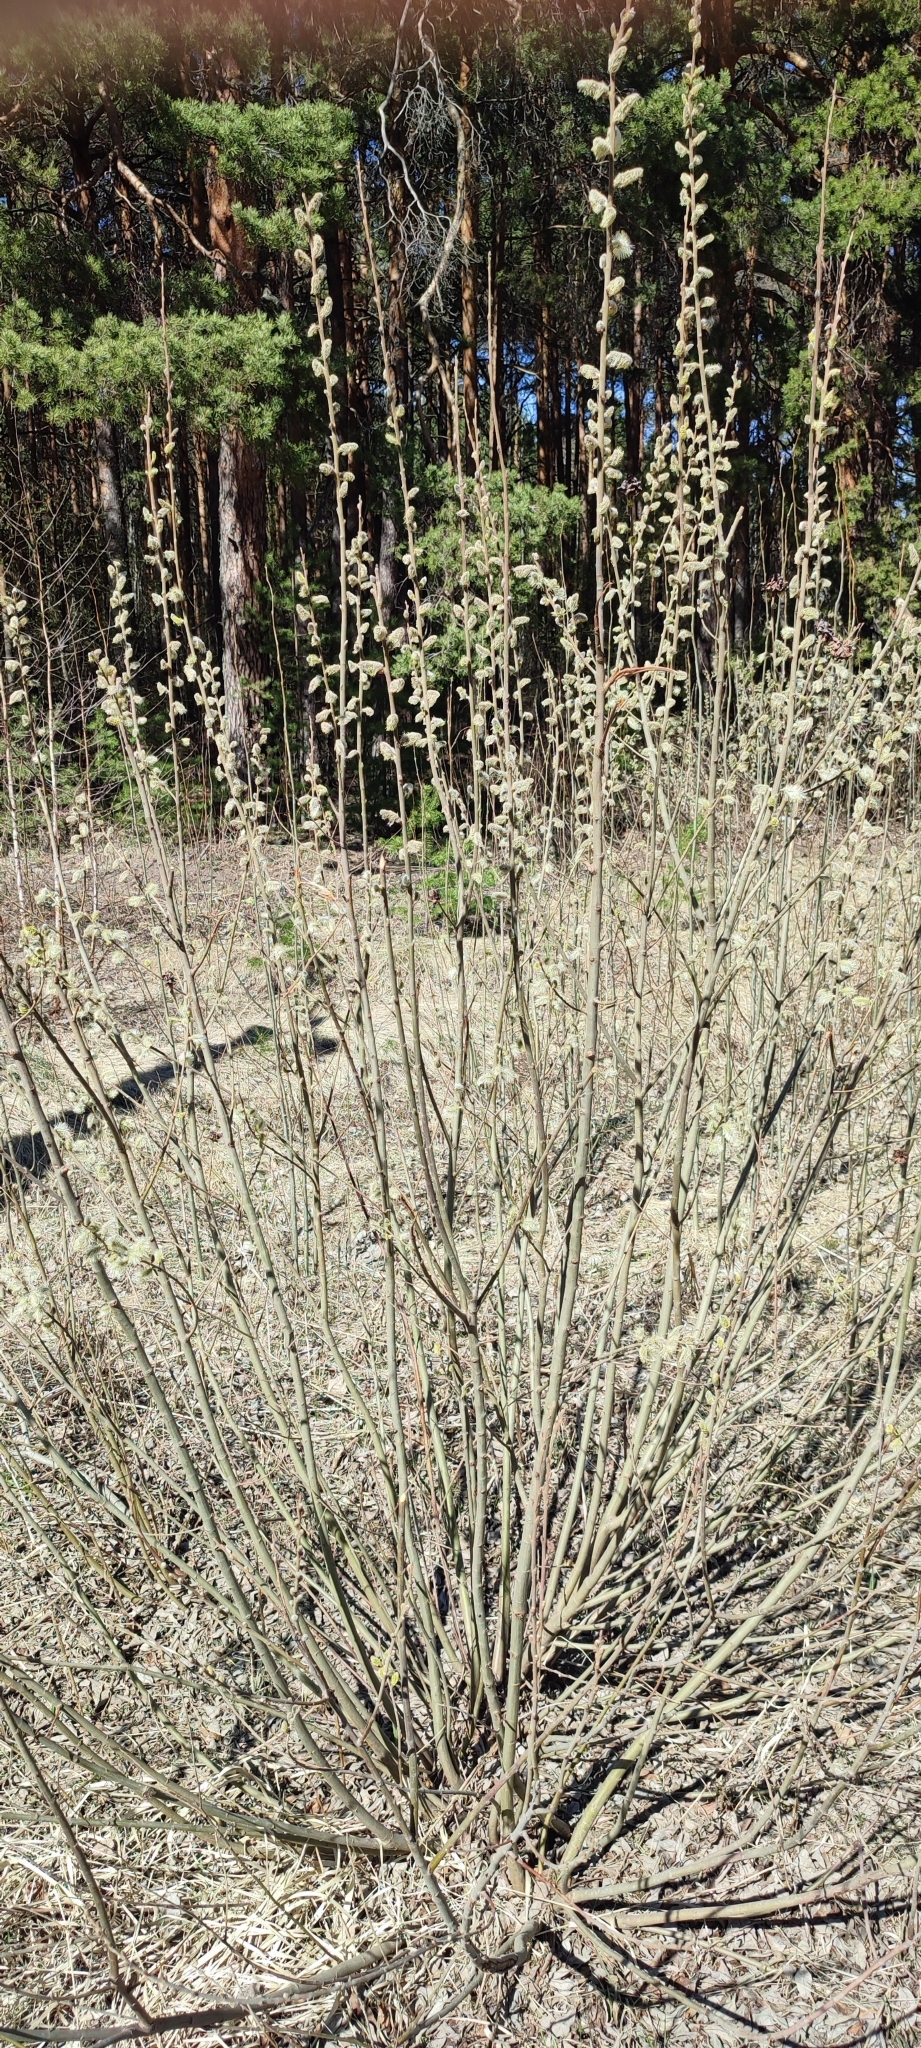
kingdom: Plantae
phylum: Tracheophyta
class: Magnoliopsida
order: Malpighiales
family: Salicaceae
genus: Salix
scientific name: Salix cinerea
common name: Common sallow
